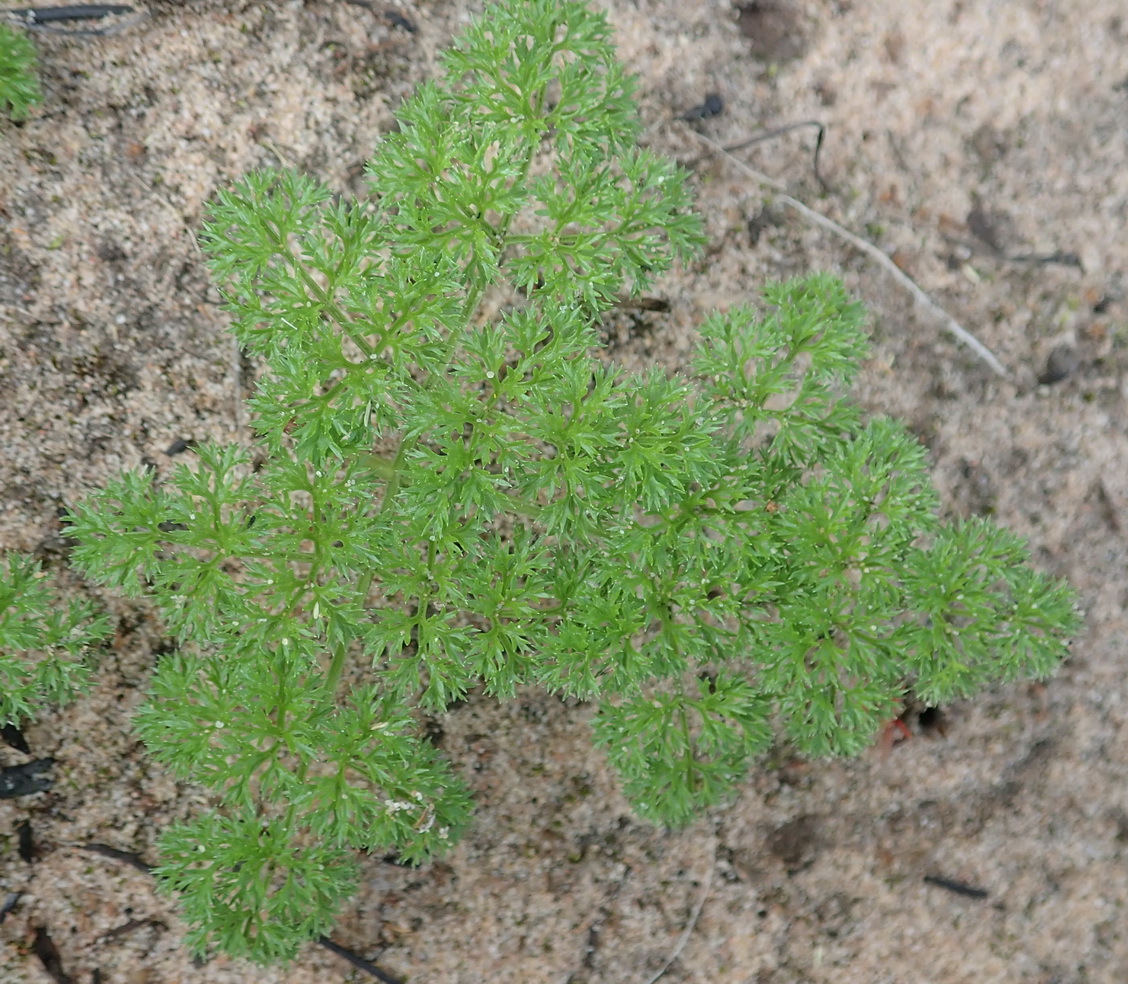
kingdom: Plantae
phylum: Tracheophyta
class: Magnoliopsida
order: Apiales
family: Apiaceae
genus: Annesorhiza
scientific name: Annesorhiza macrocarpa
